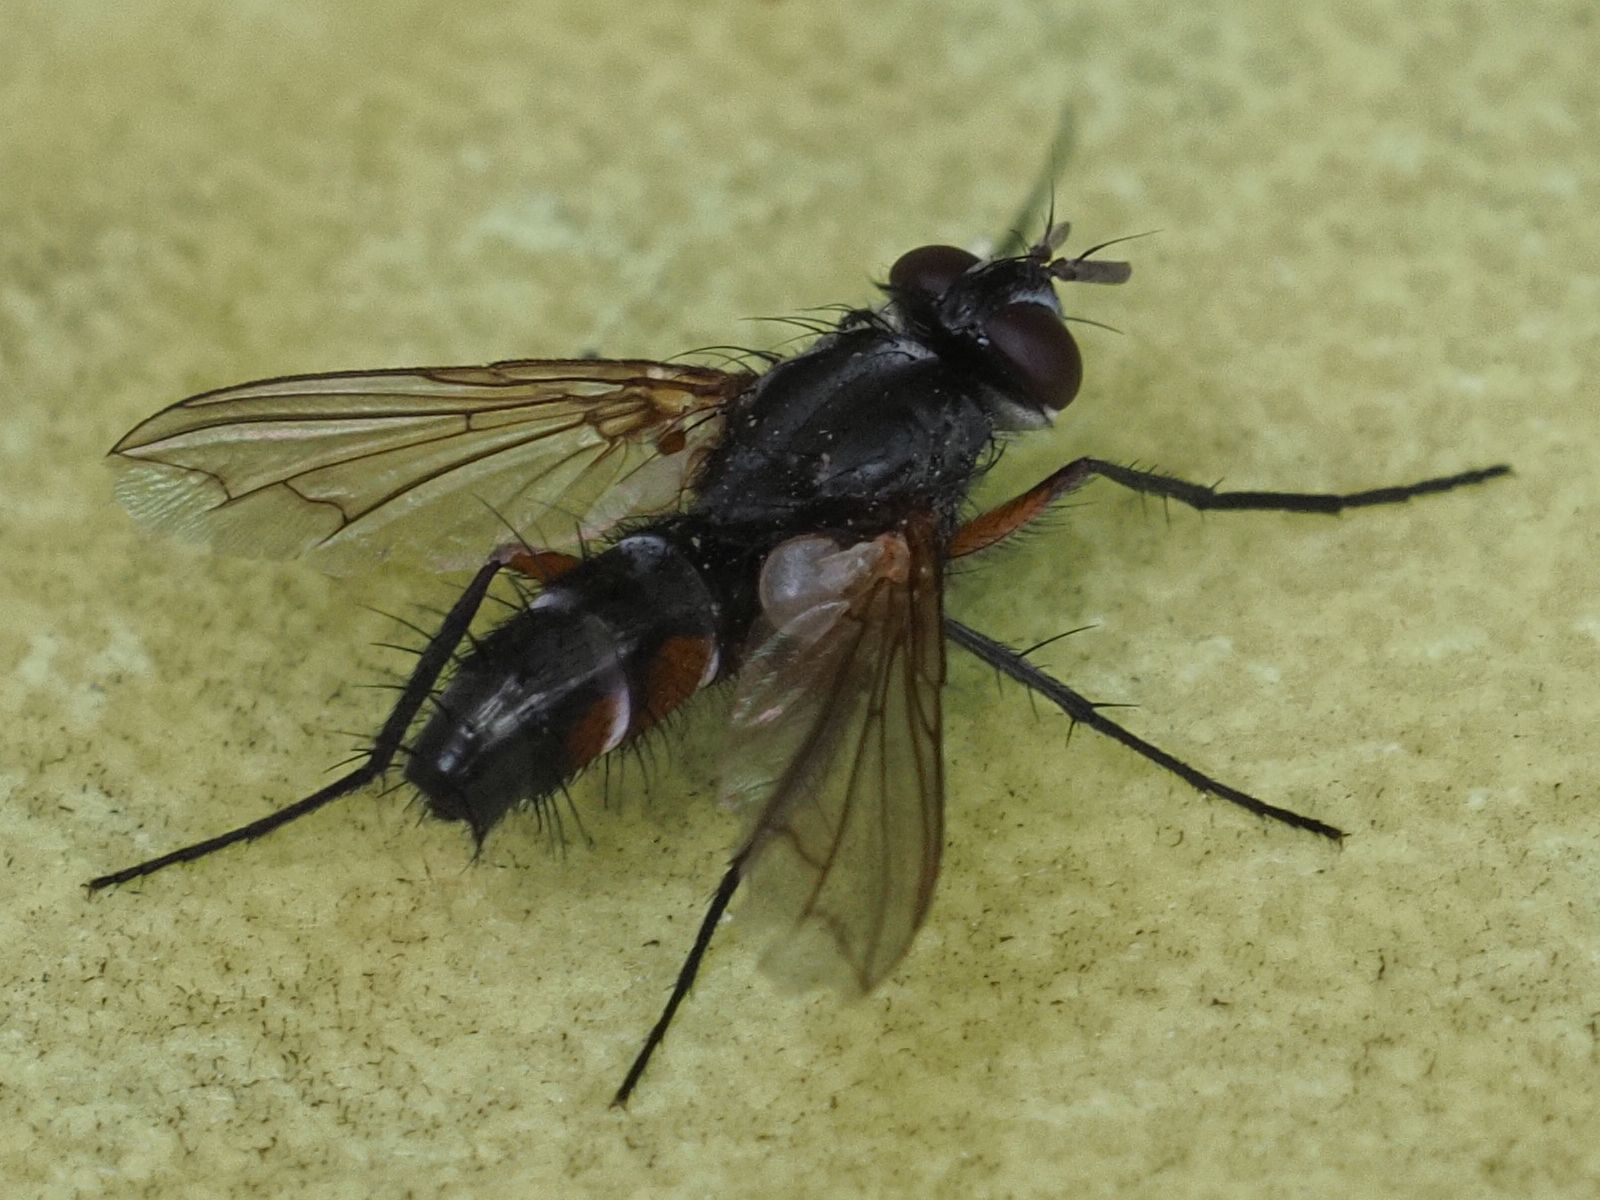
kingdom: Animalia
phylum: Arthropoda
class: Insecta
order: Diptera
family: Tachinidae
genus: Mintho
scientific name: Mintho rufiventris
